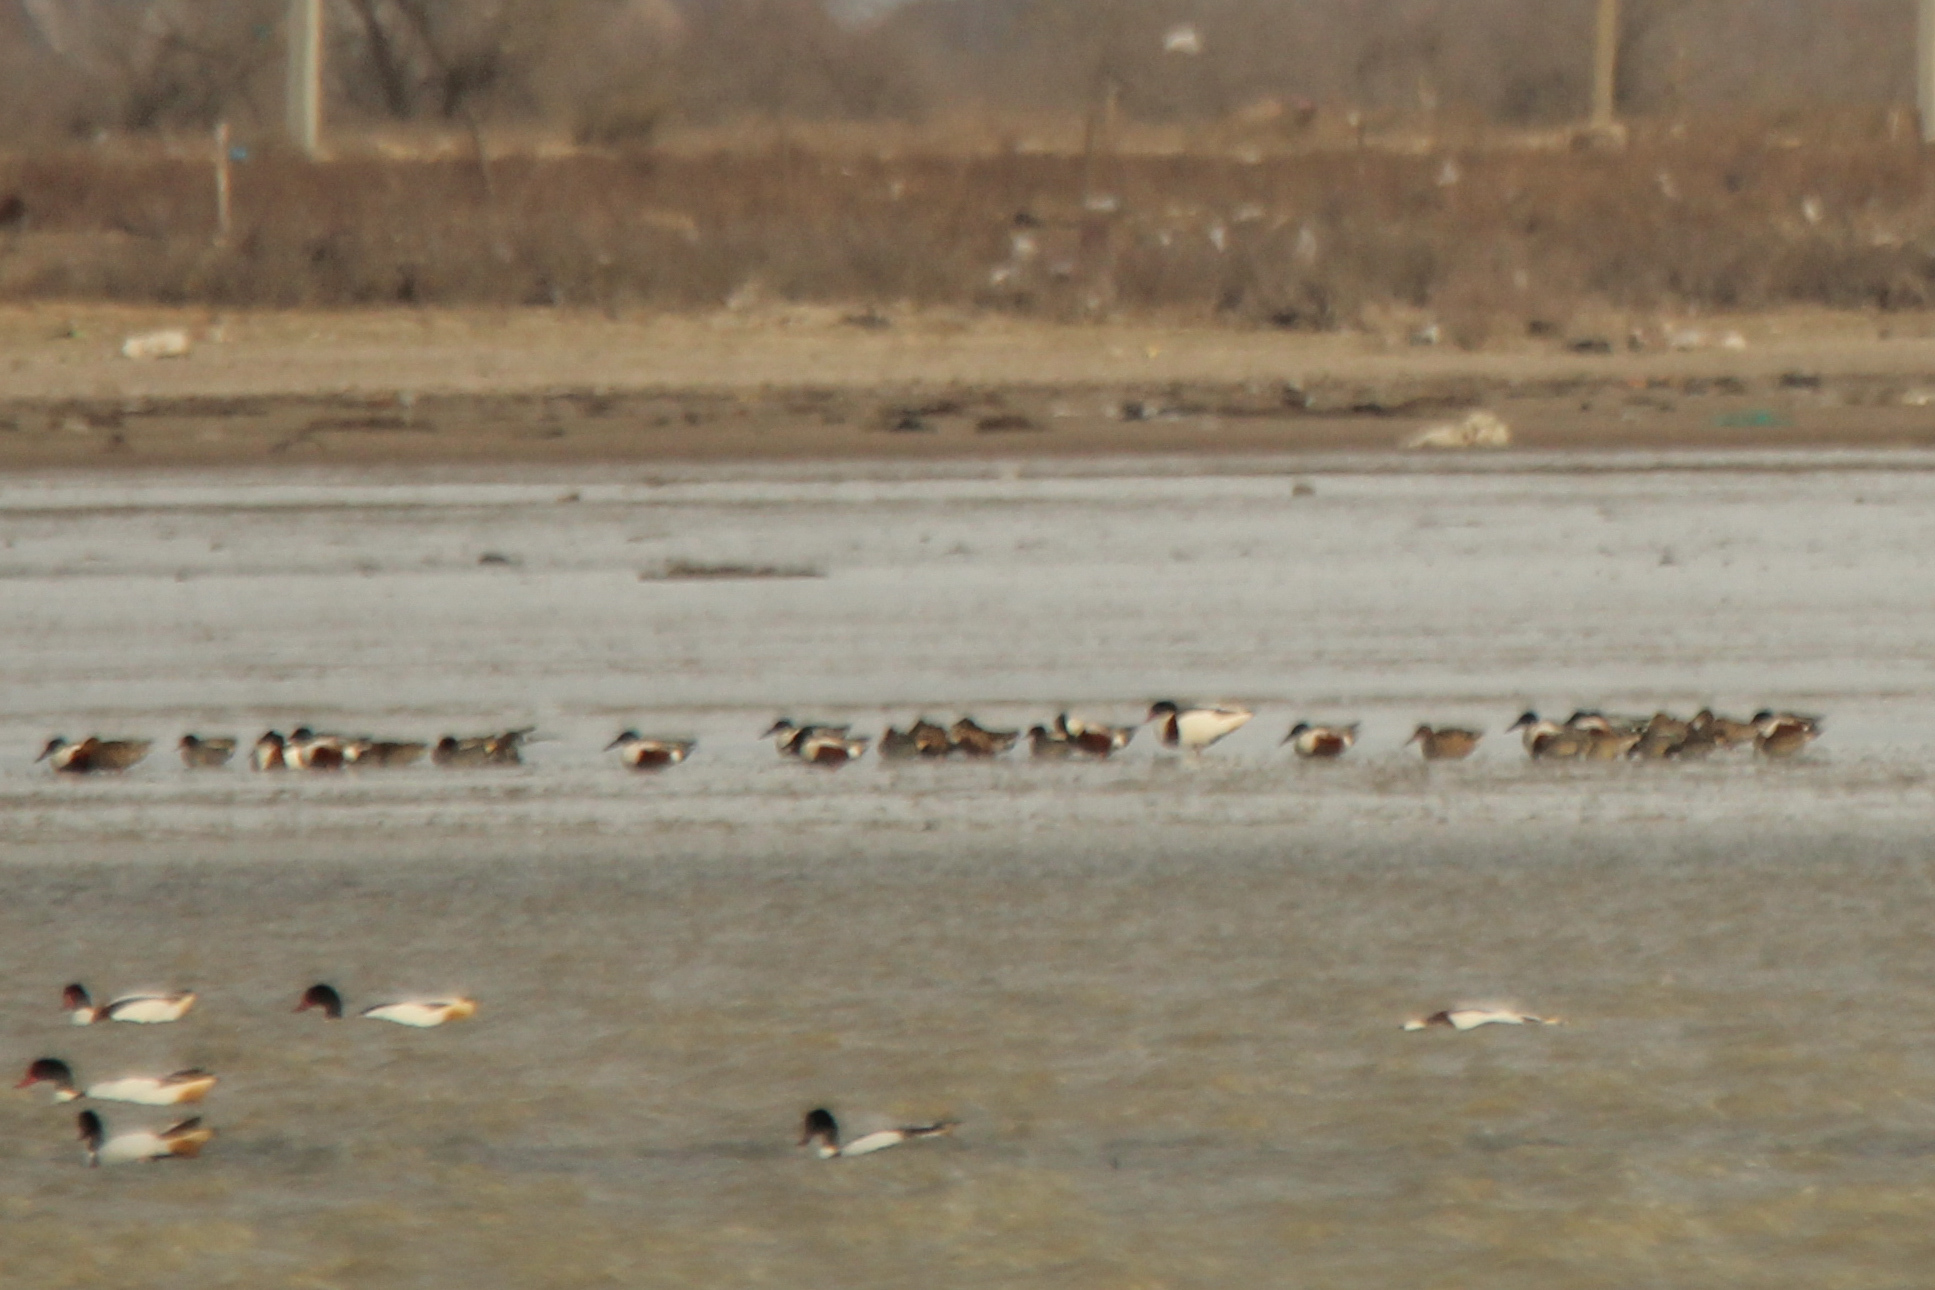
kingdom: Animalia
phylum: Chordata
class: Aves
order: Anseriformes
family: Anatidae
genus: Spatula
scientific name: Spatula clypeata
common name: Northern shoveler
